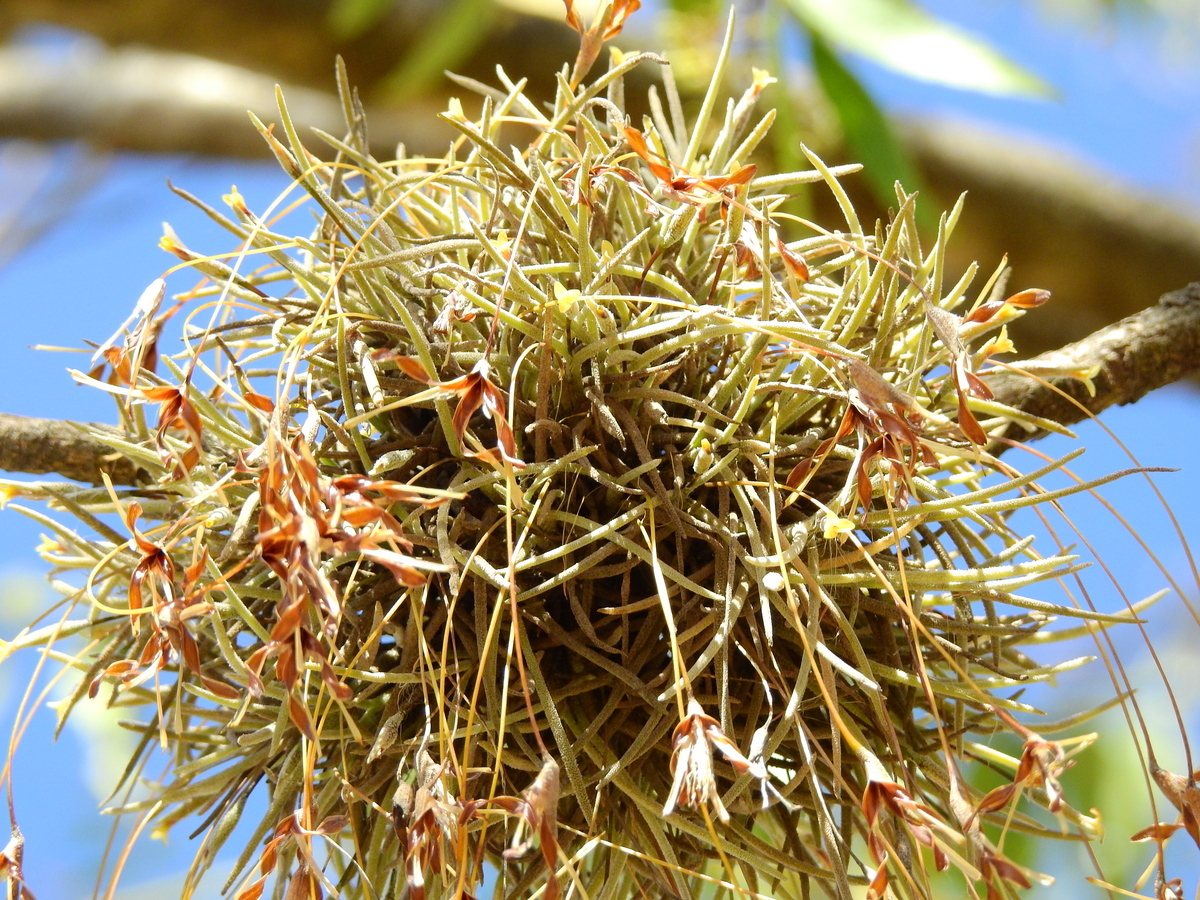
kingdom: Plantae
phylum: Tracheophyta
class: Liliopsida
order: Poales
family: Bromeliaceae
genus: Tillandsia
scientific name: Tillandsia capillaris
